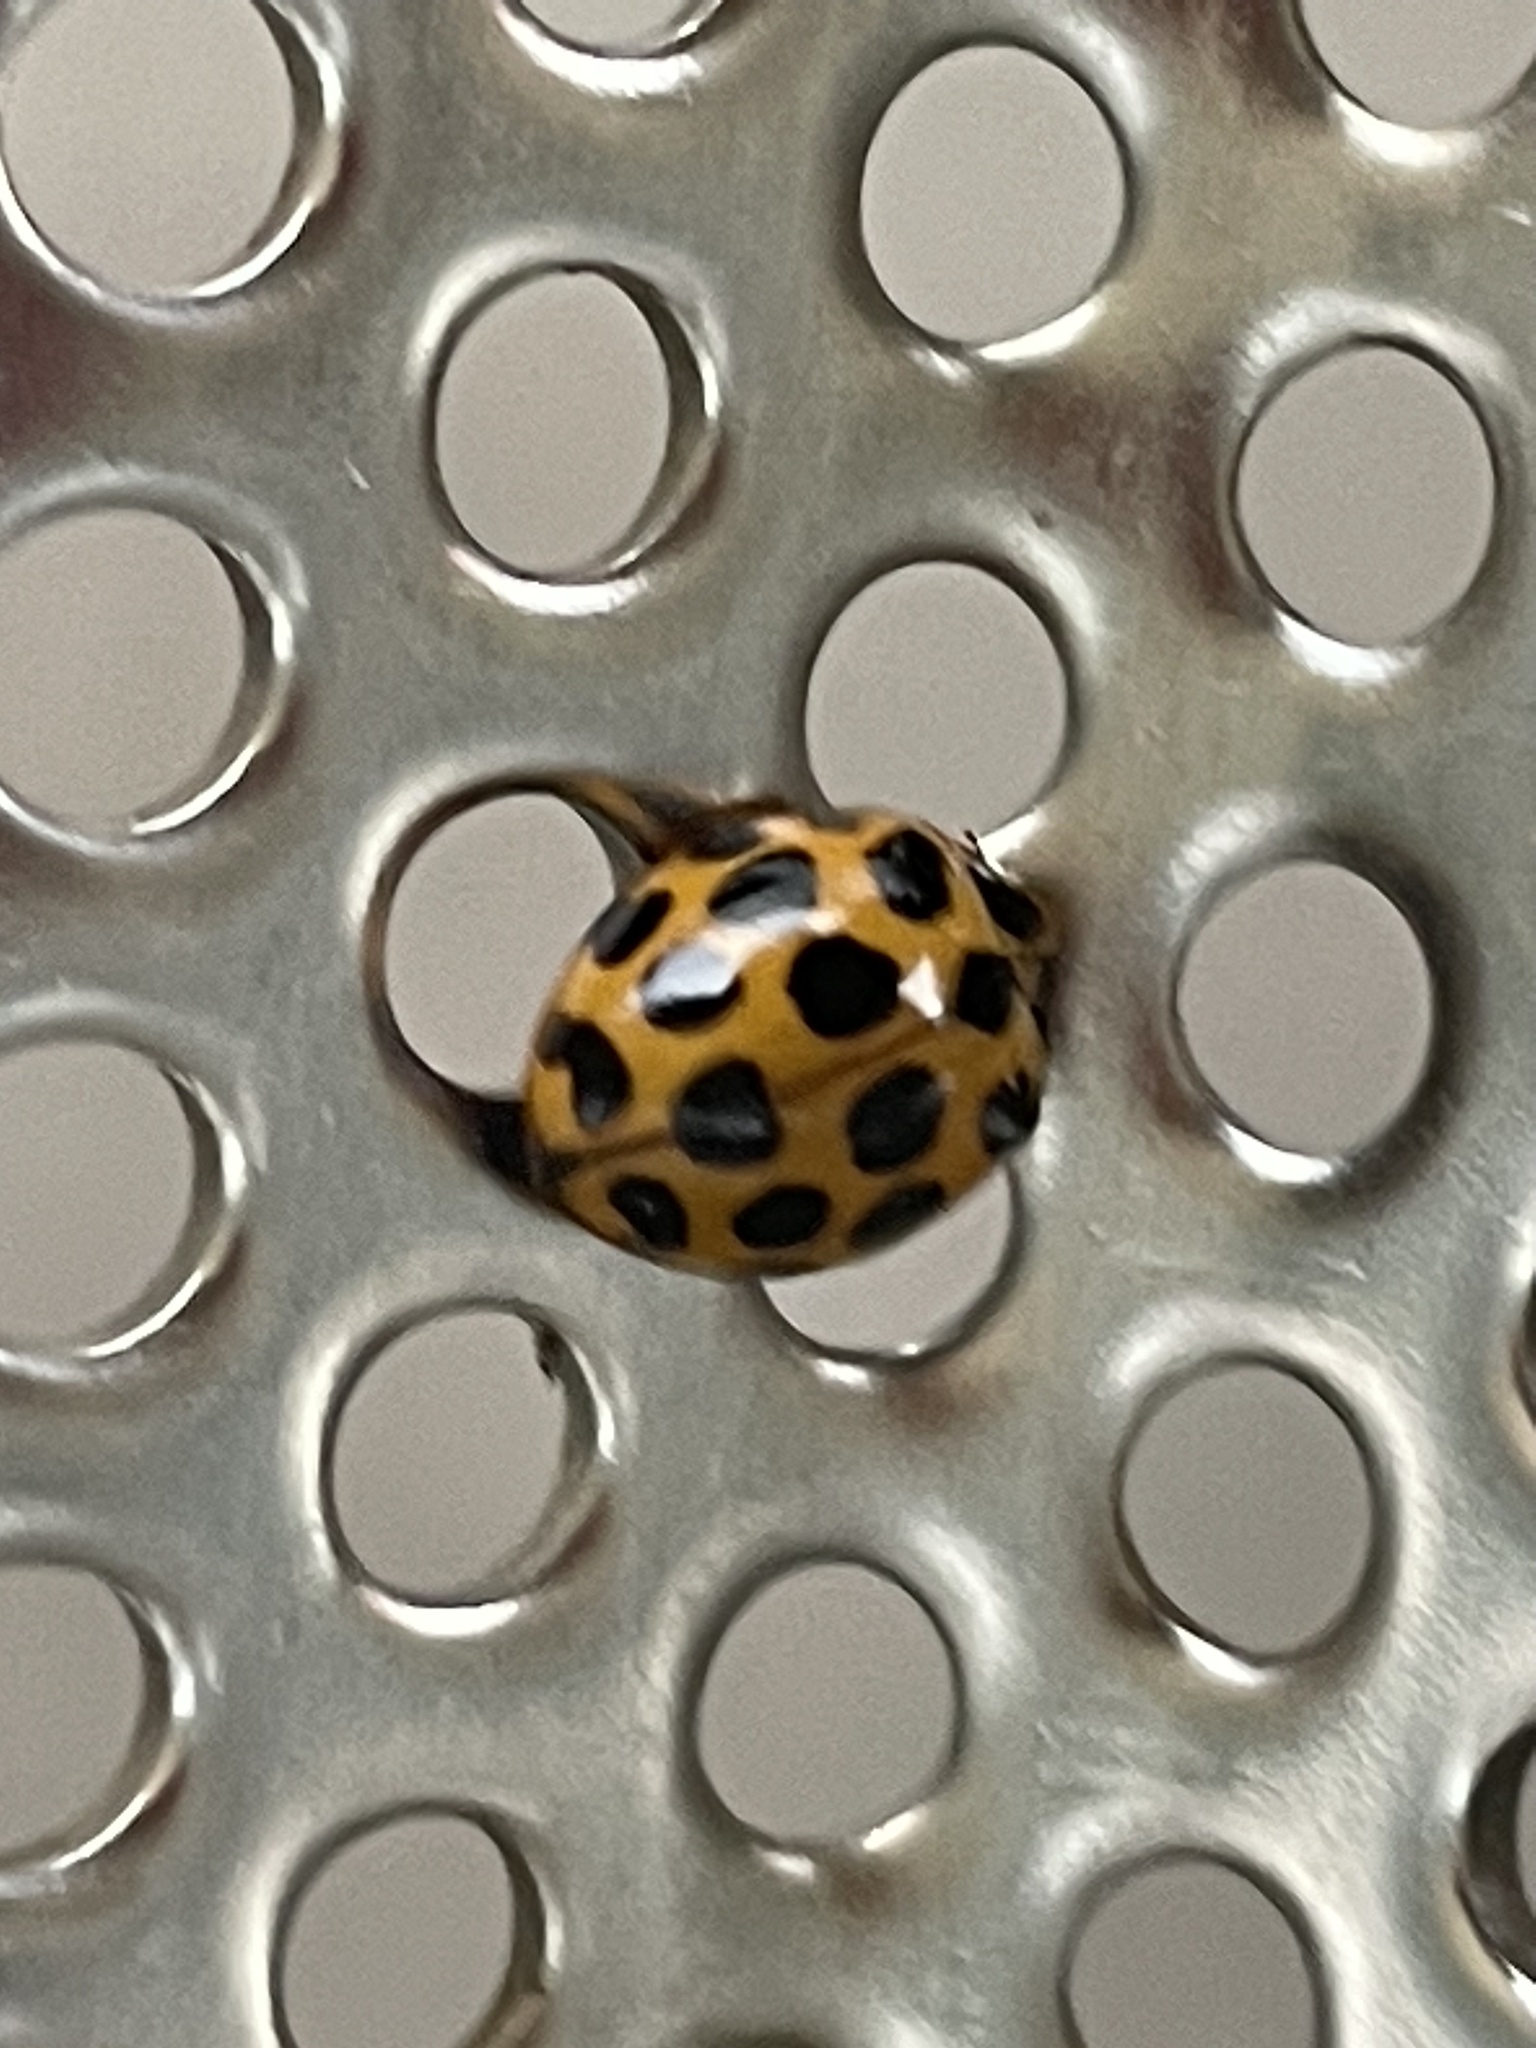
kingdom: Animalia
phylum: Arthropoda
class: Insecta
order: Coleoptera
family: Coccinellidae
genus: Harmonia
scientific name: Harmonia conformis
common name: Common spotted ladybird beetle
